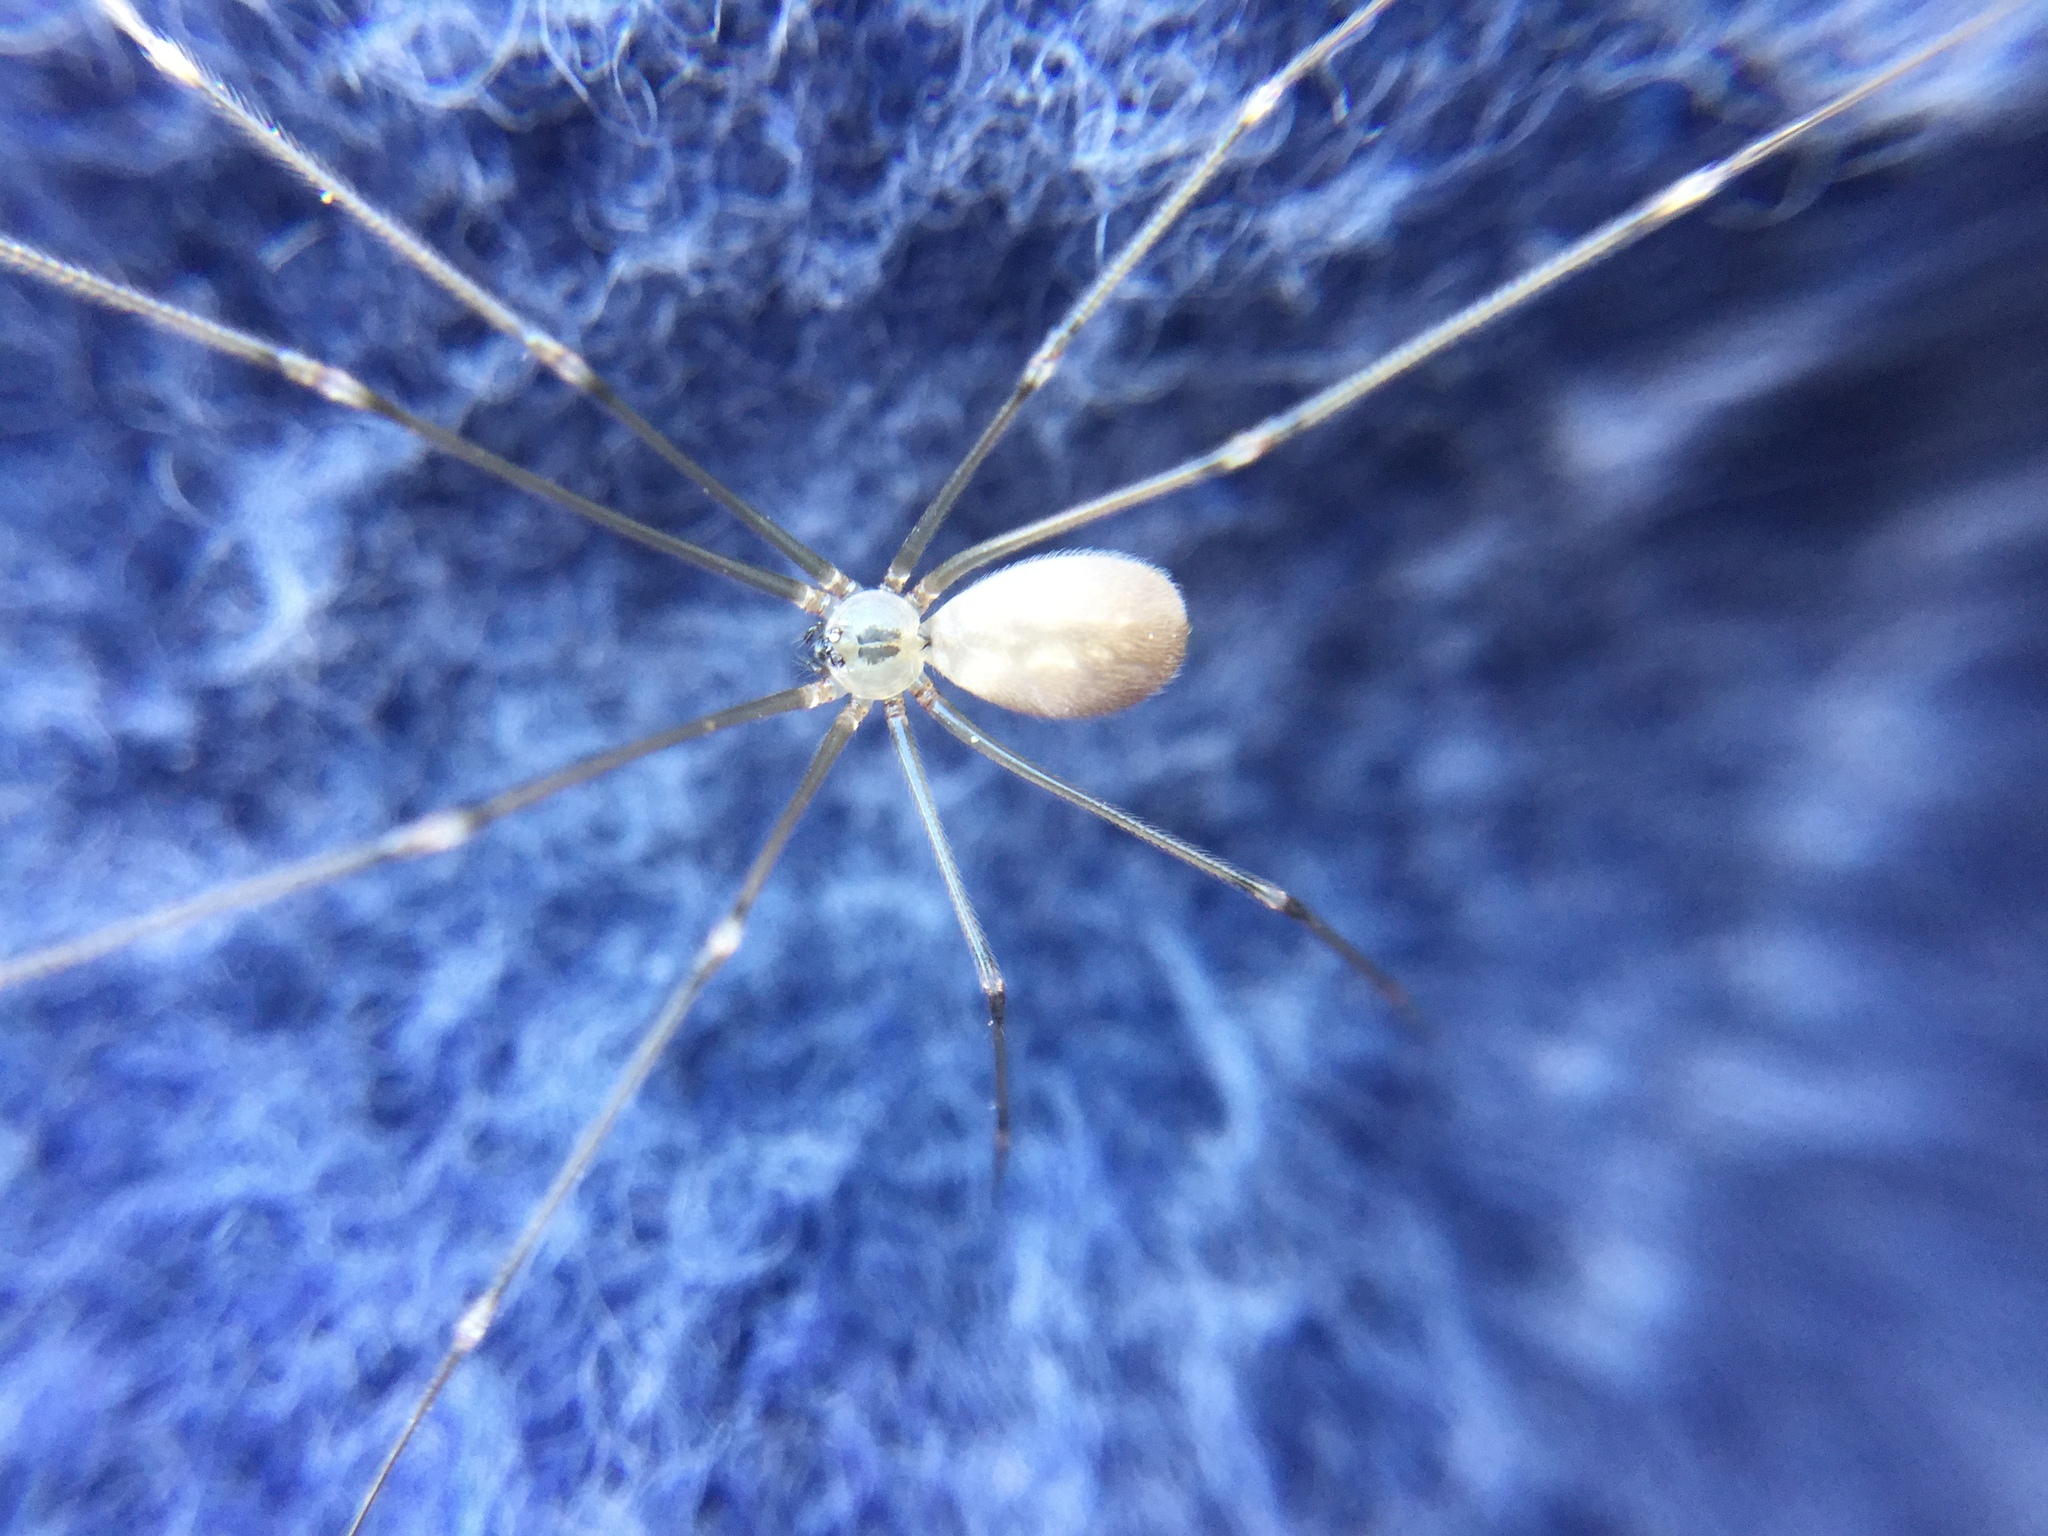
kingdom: Animalia
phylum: Arthropoda
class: Arachnida
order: Araneae
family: Pholcidae
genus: Pholcus
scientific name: Pholcus manueli
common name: Cellar spider
